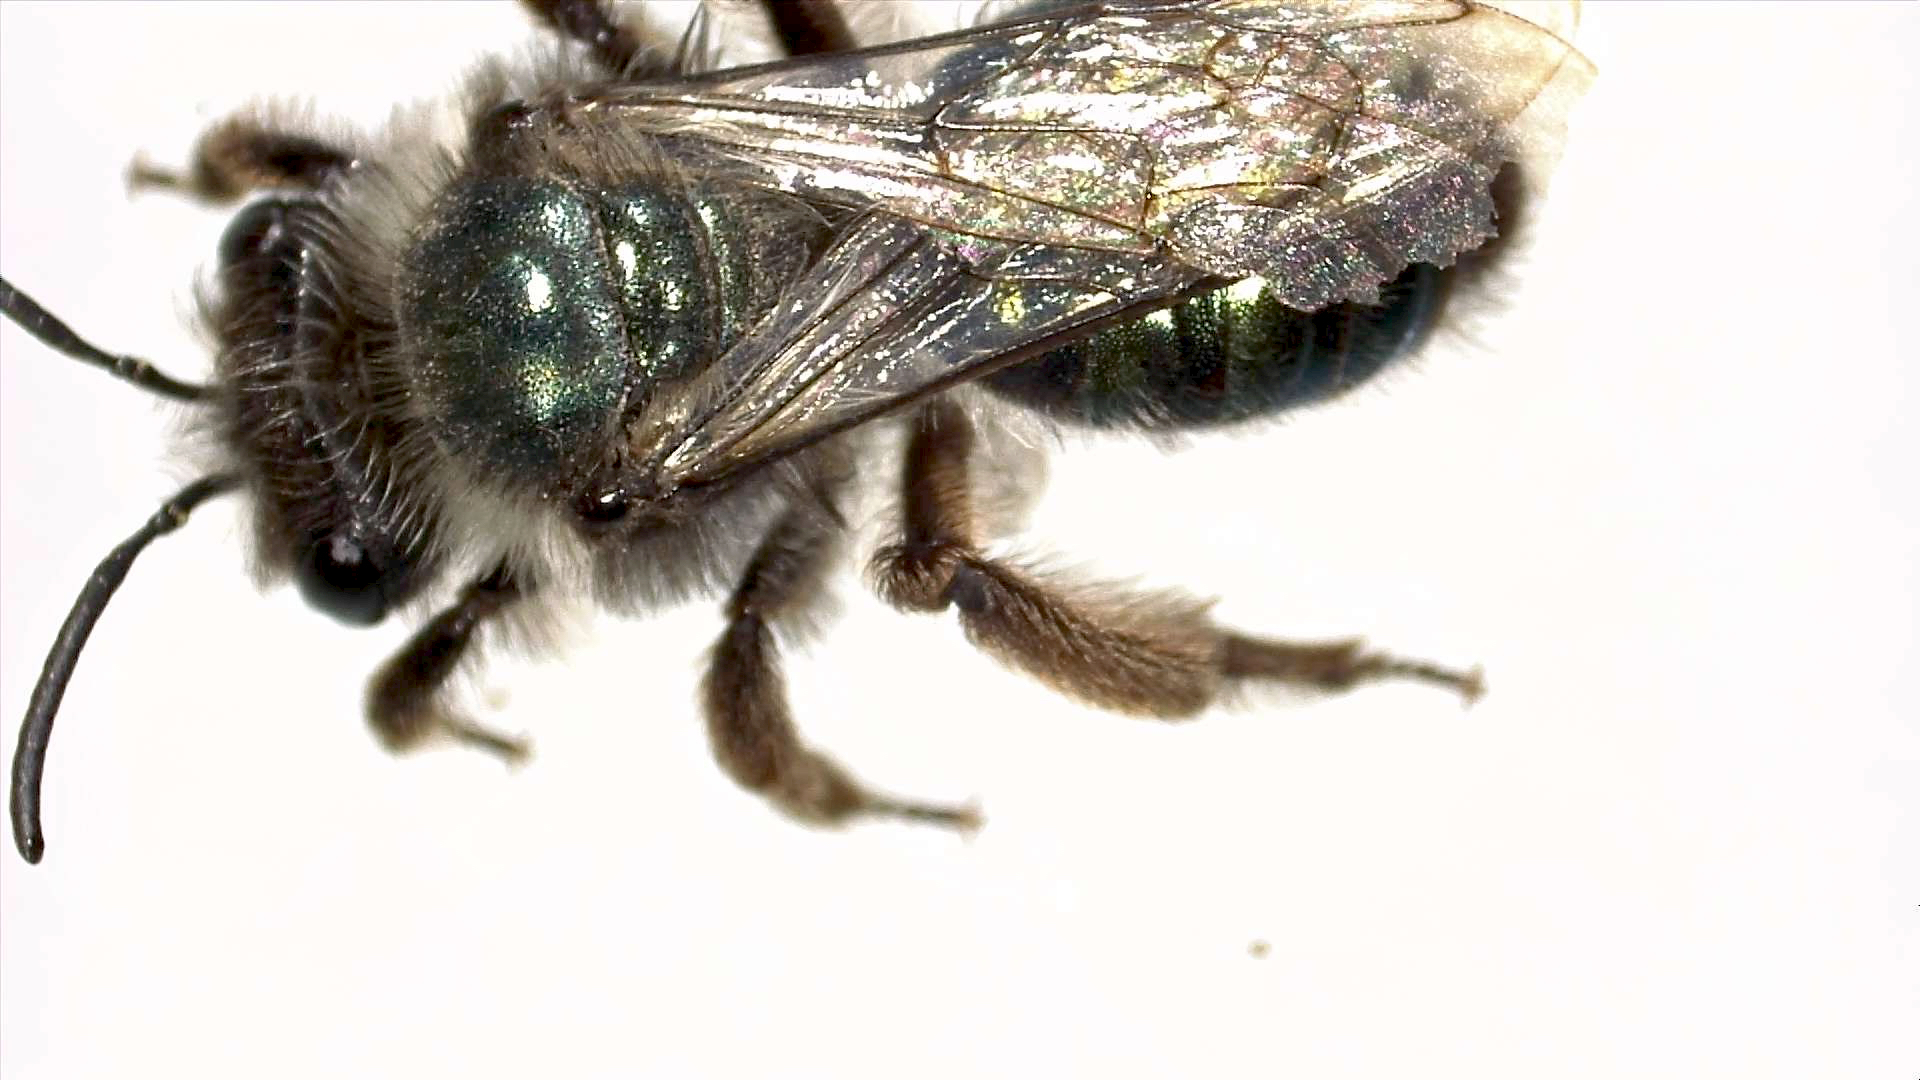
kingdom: Animalia
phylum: Arthropoda
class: Insecta
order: Hymenoptera
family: Andrenidae
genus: Andrena
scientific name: Andrena cerasifolii
